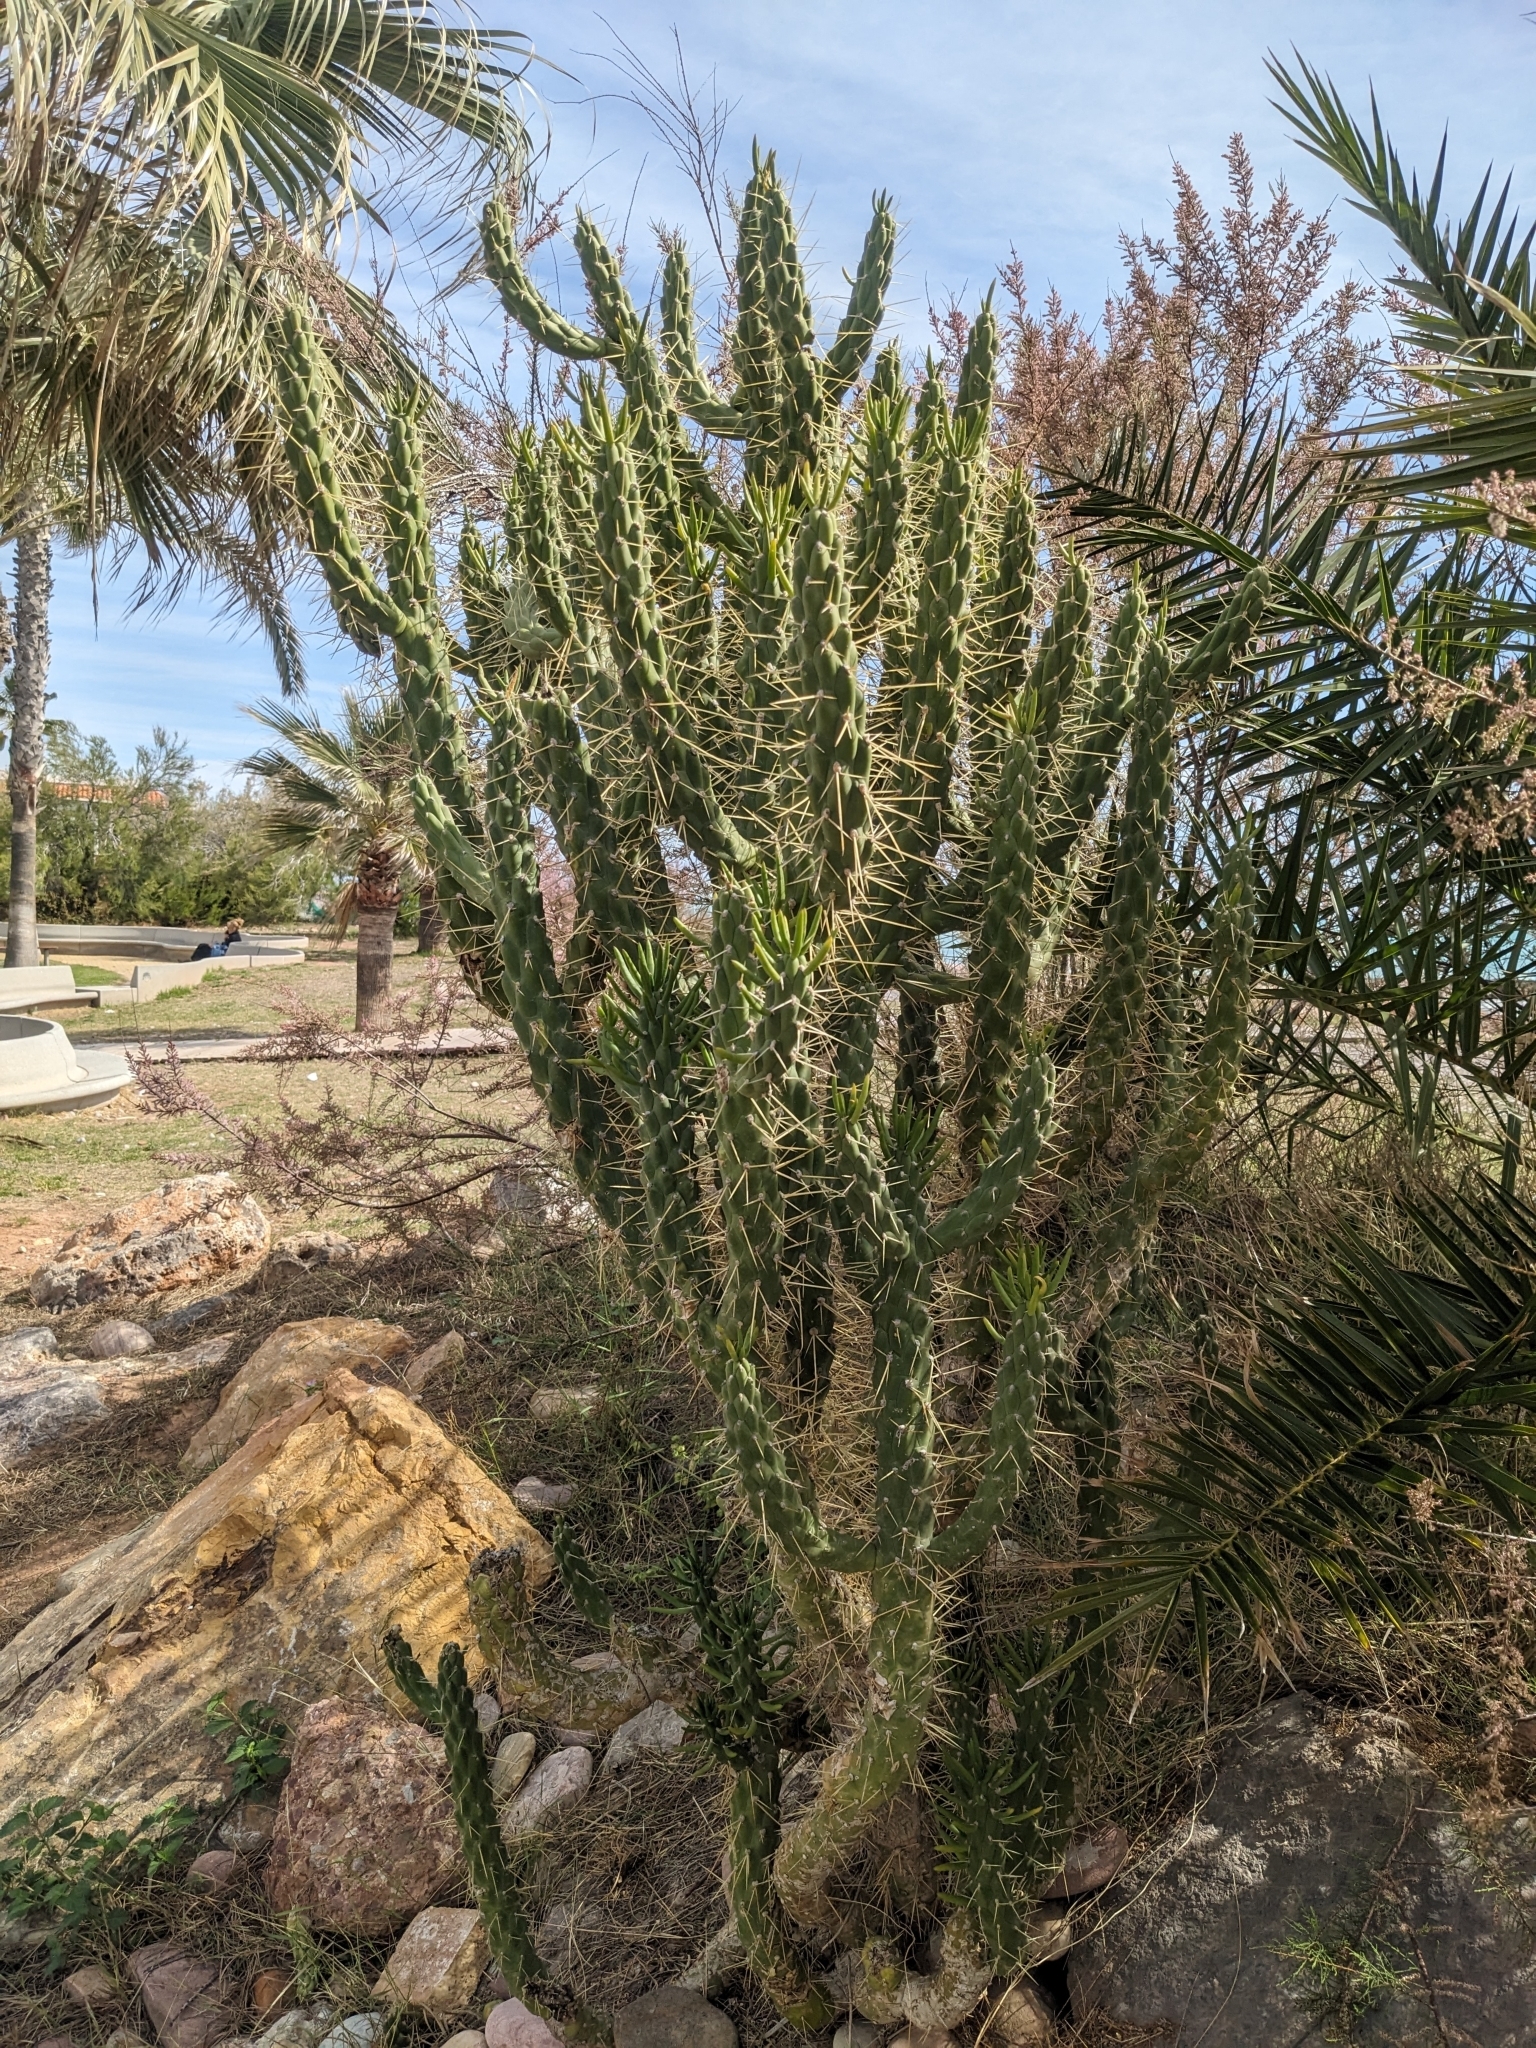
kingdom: Plantae
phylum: Tracheophyta
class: Magnoliopsida
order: Caryophyllales
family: Cactaceae
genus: Austrocylindropuntia
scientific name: Austrocylindropuntia subulata
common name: Eve's needle cactus
